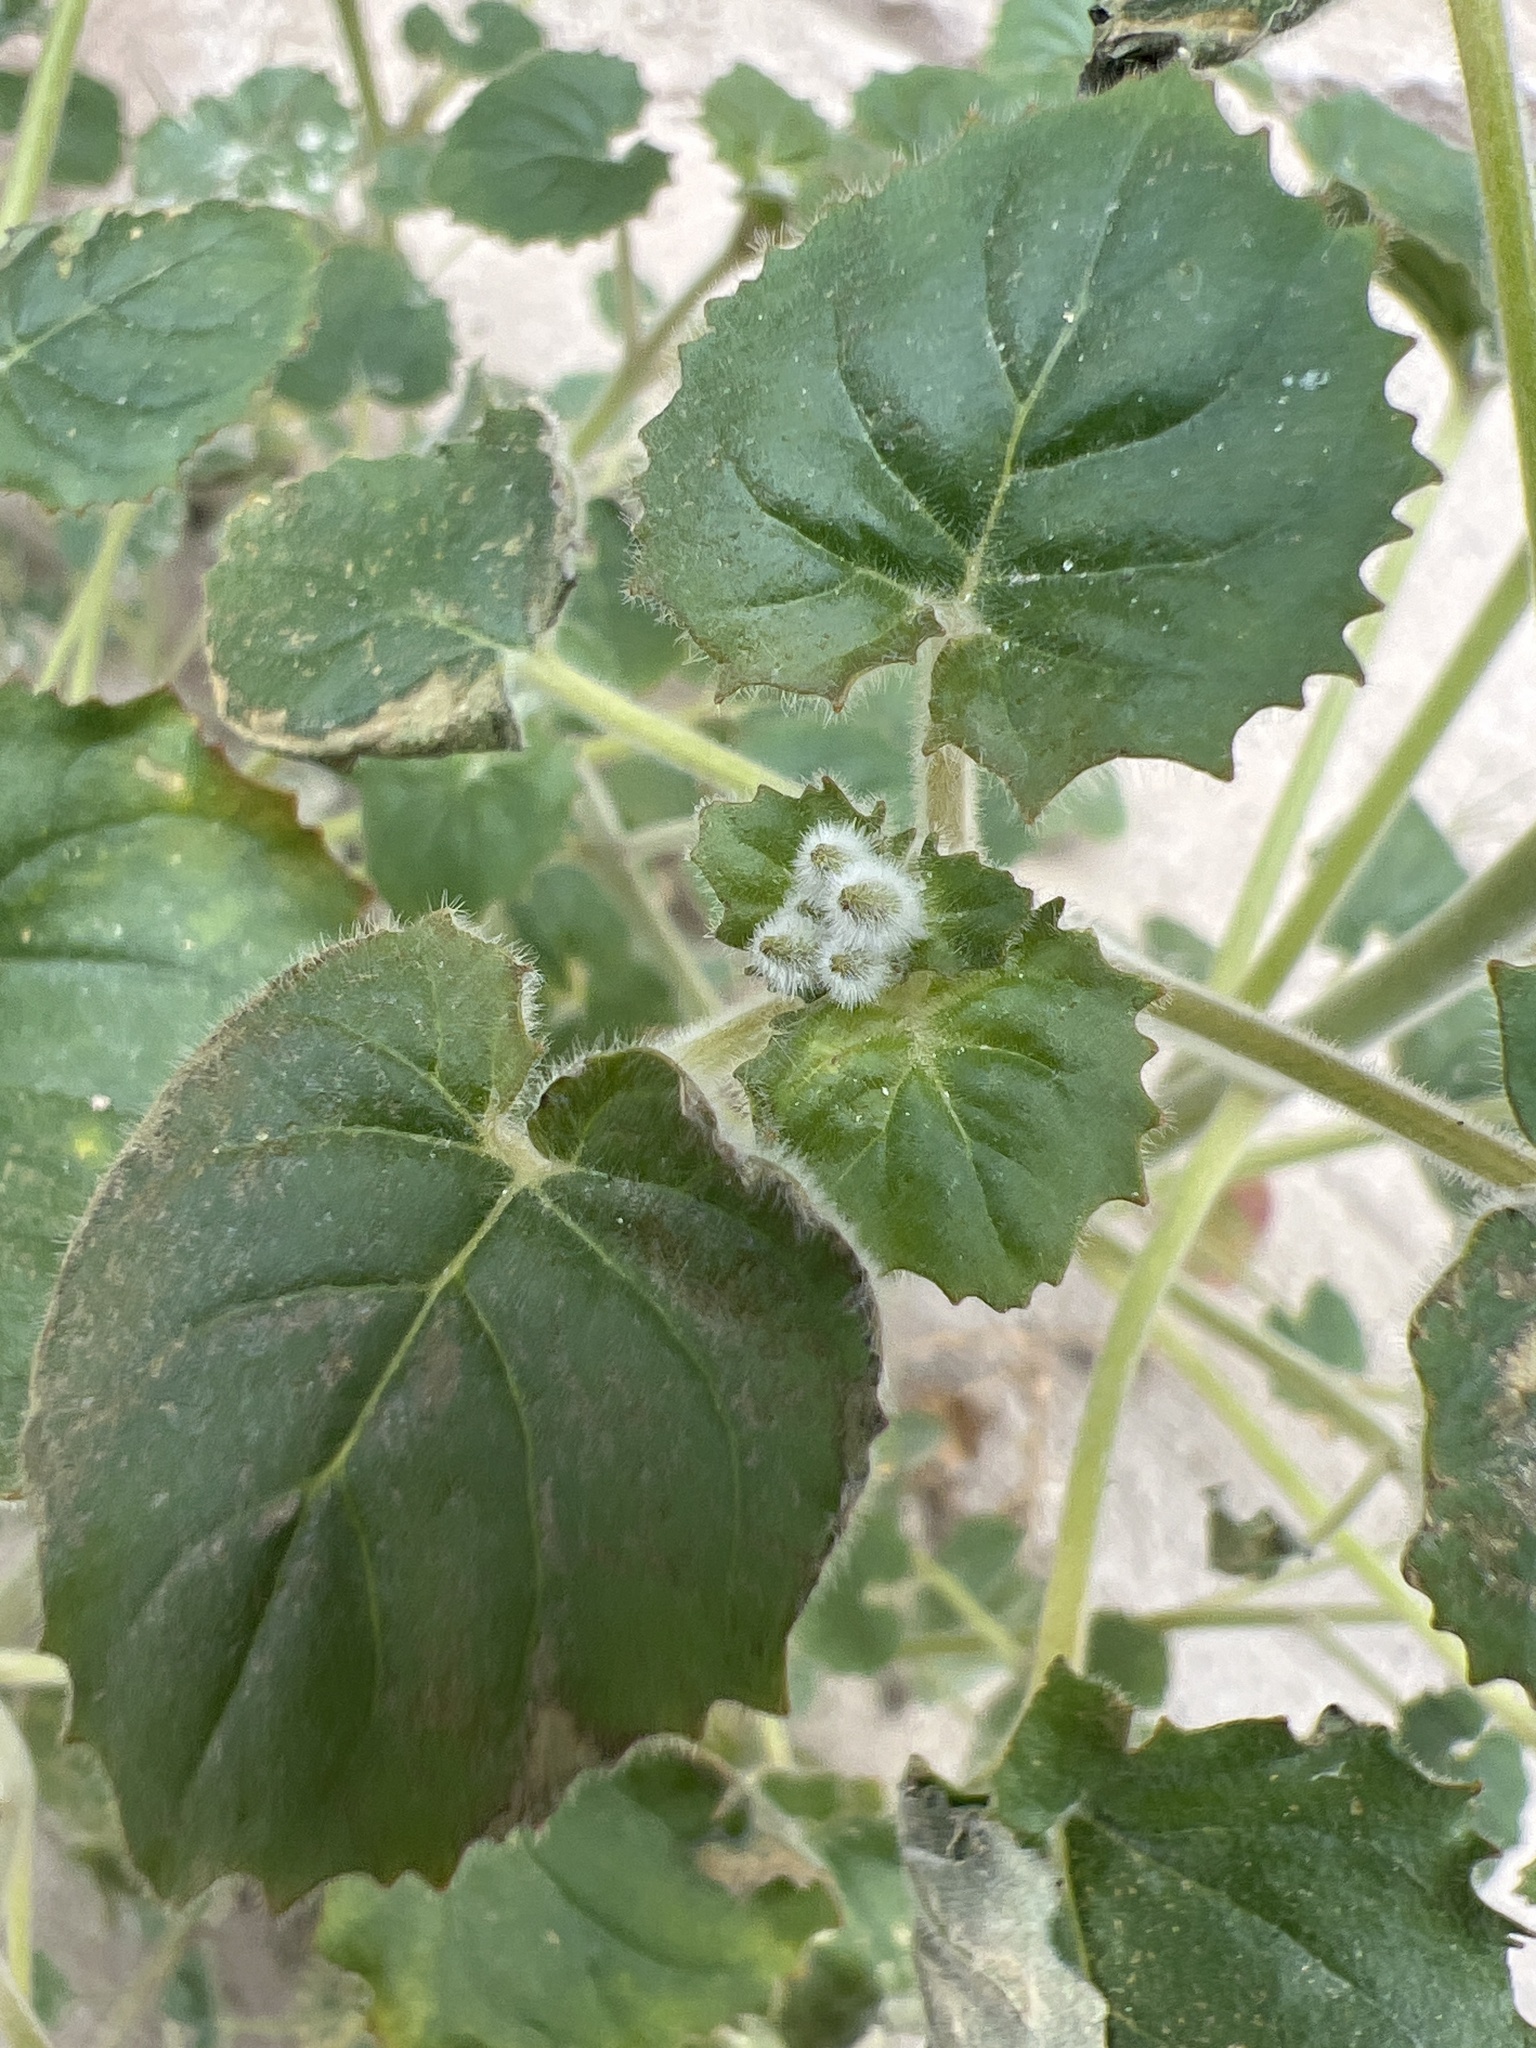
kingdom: Plantae
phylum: Tracheophyta
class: Magnoliopsida
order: Myrtales
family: Onagraceae
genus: Chylismia
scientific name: Chylismia cardiophylla
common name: Heartleaf suncup
